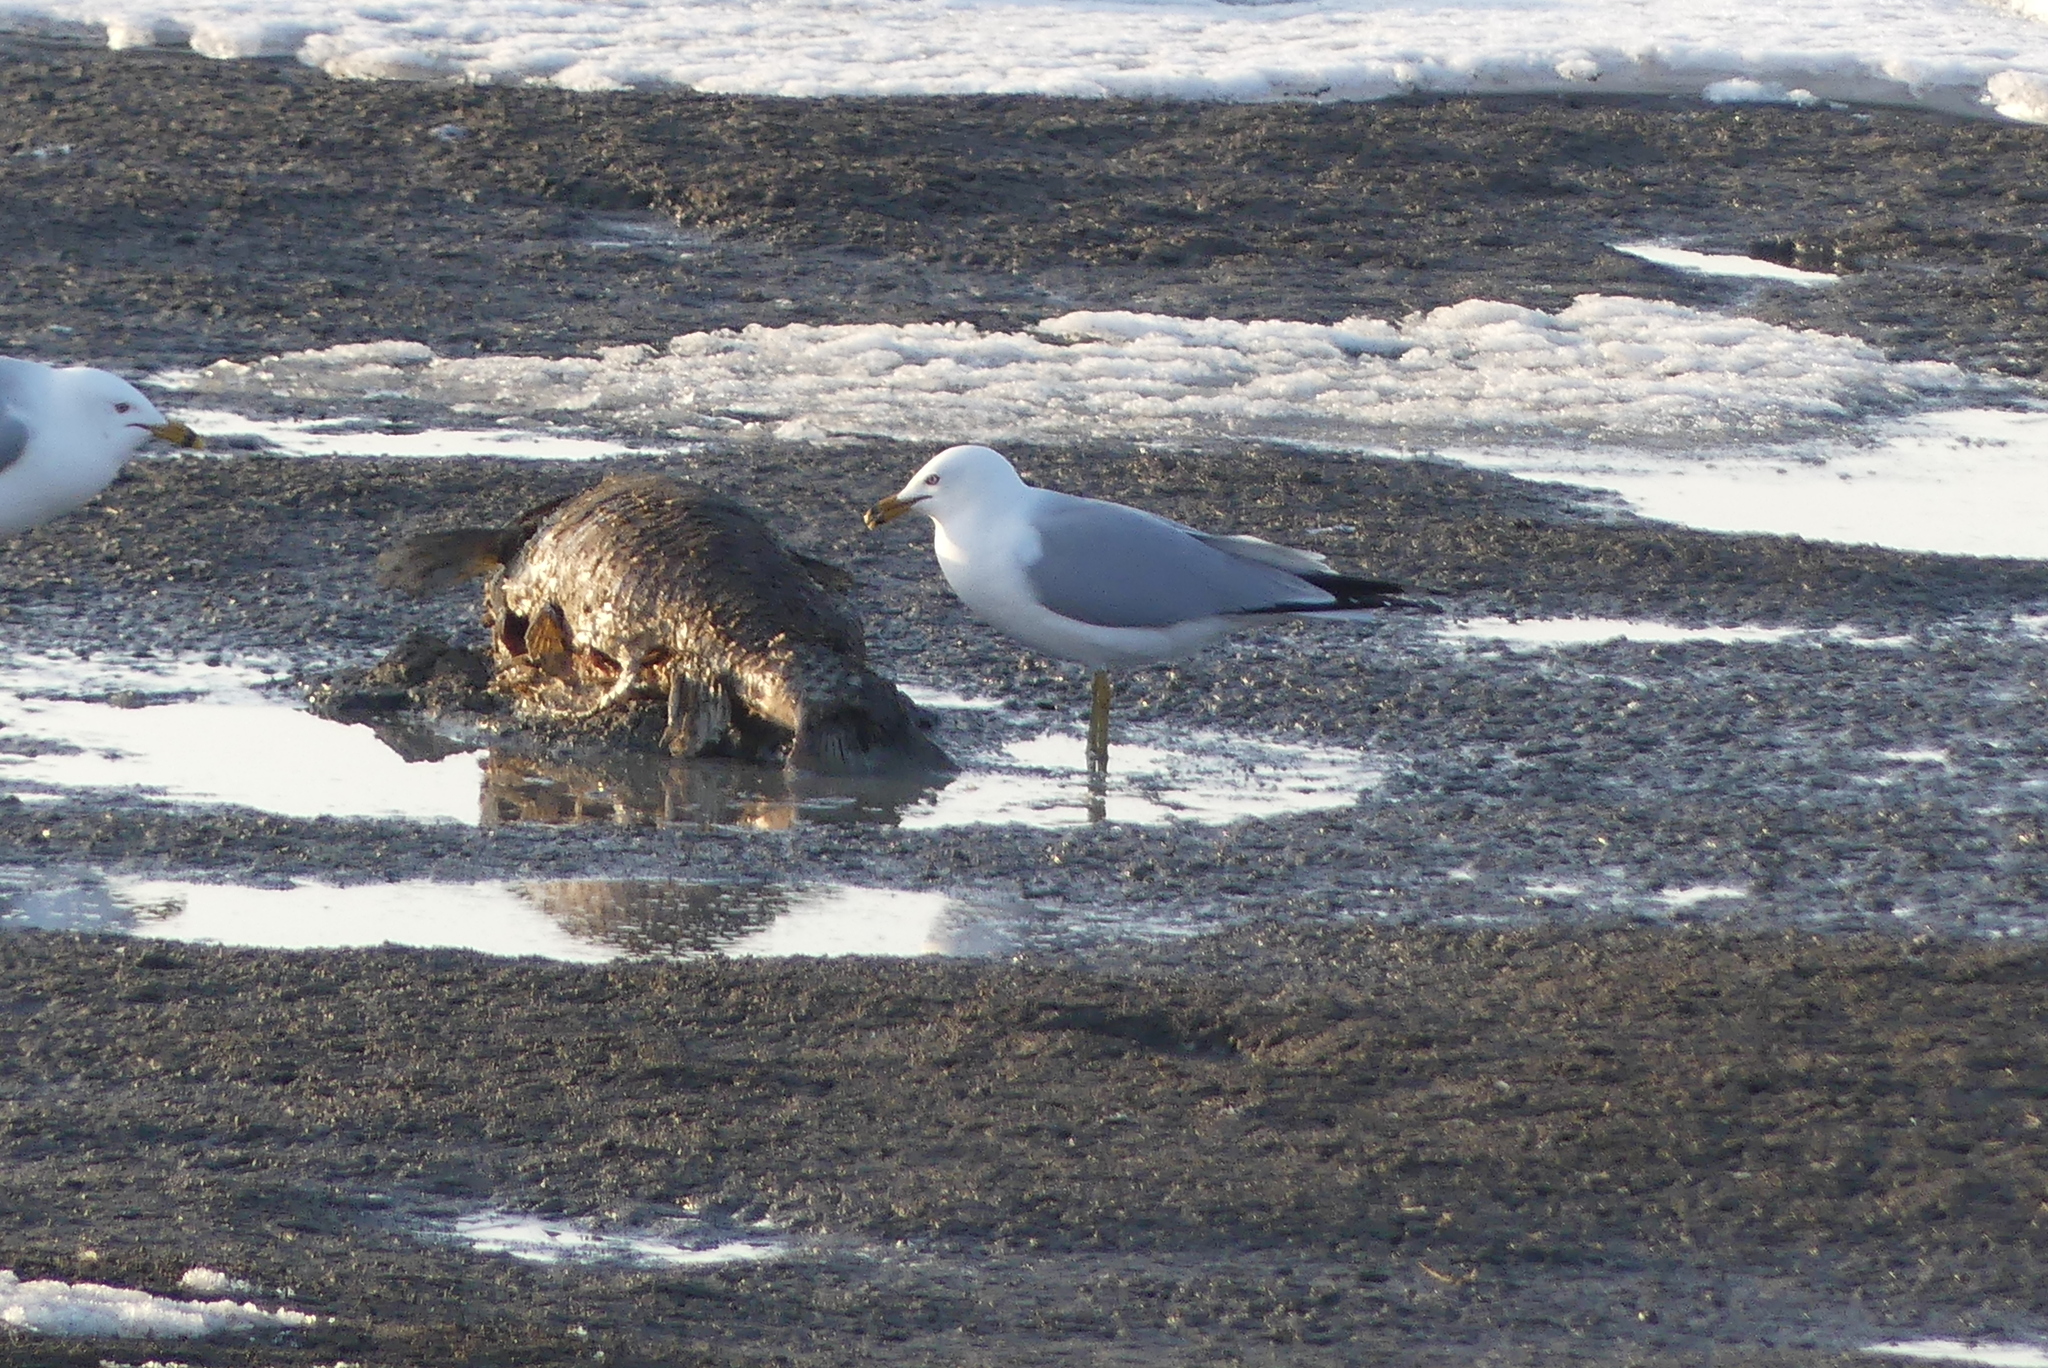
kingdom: Animalia
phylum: Chordata
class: Aves
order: Charadriiformes
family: Laridae
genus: Larus
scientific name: Larus delawarensis
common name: Ring-billed gull
